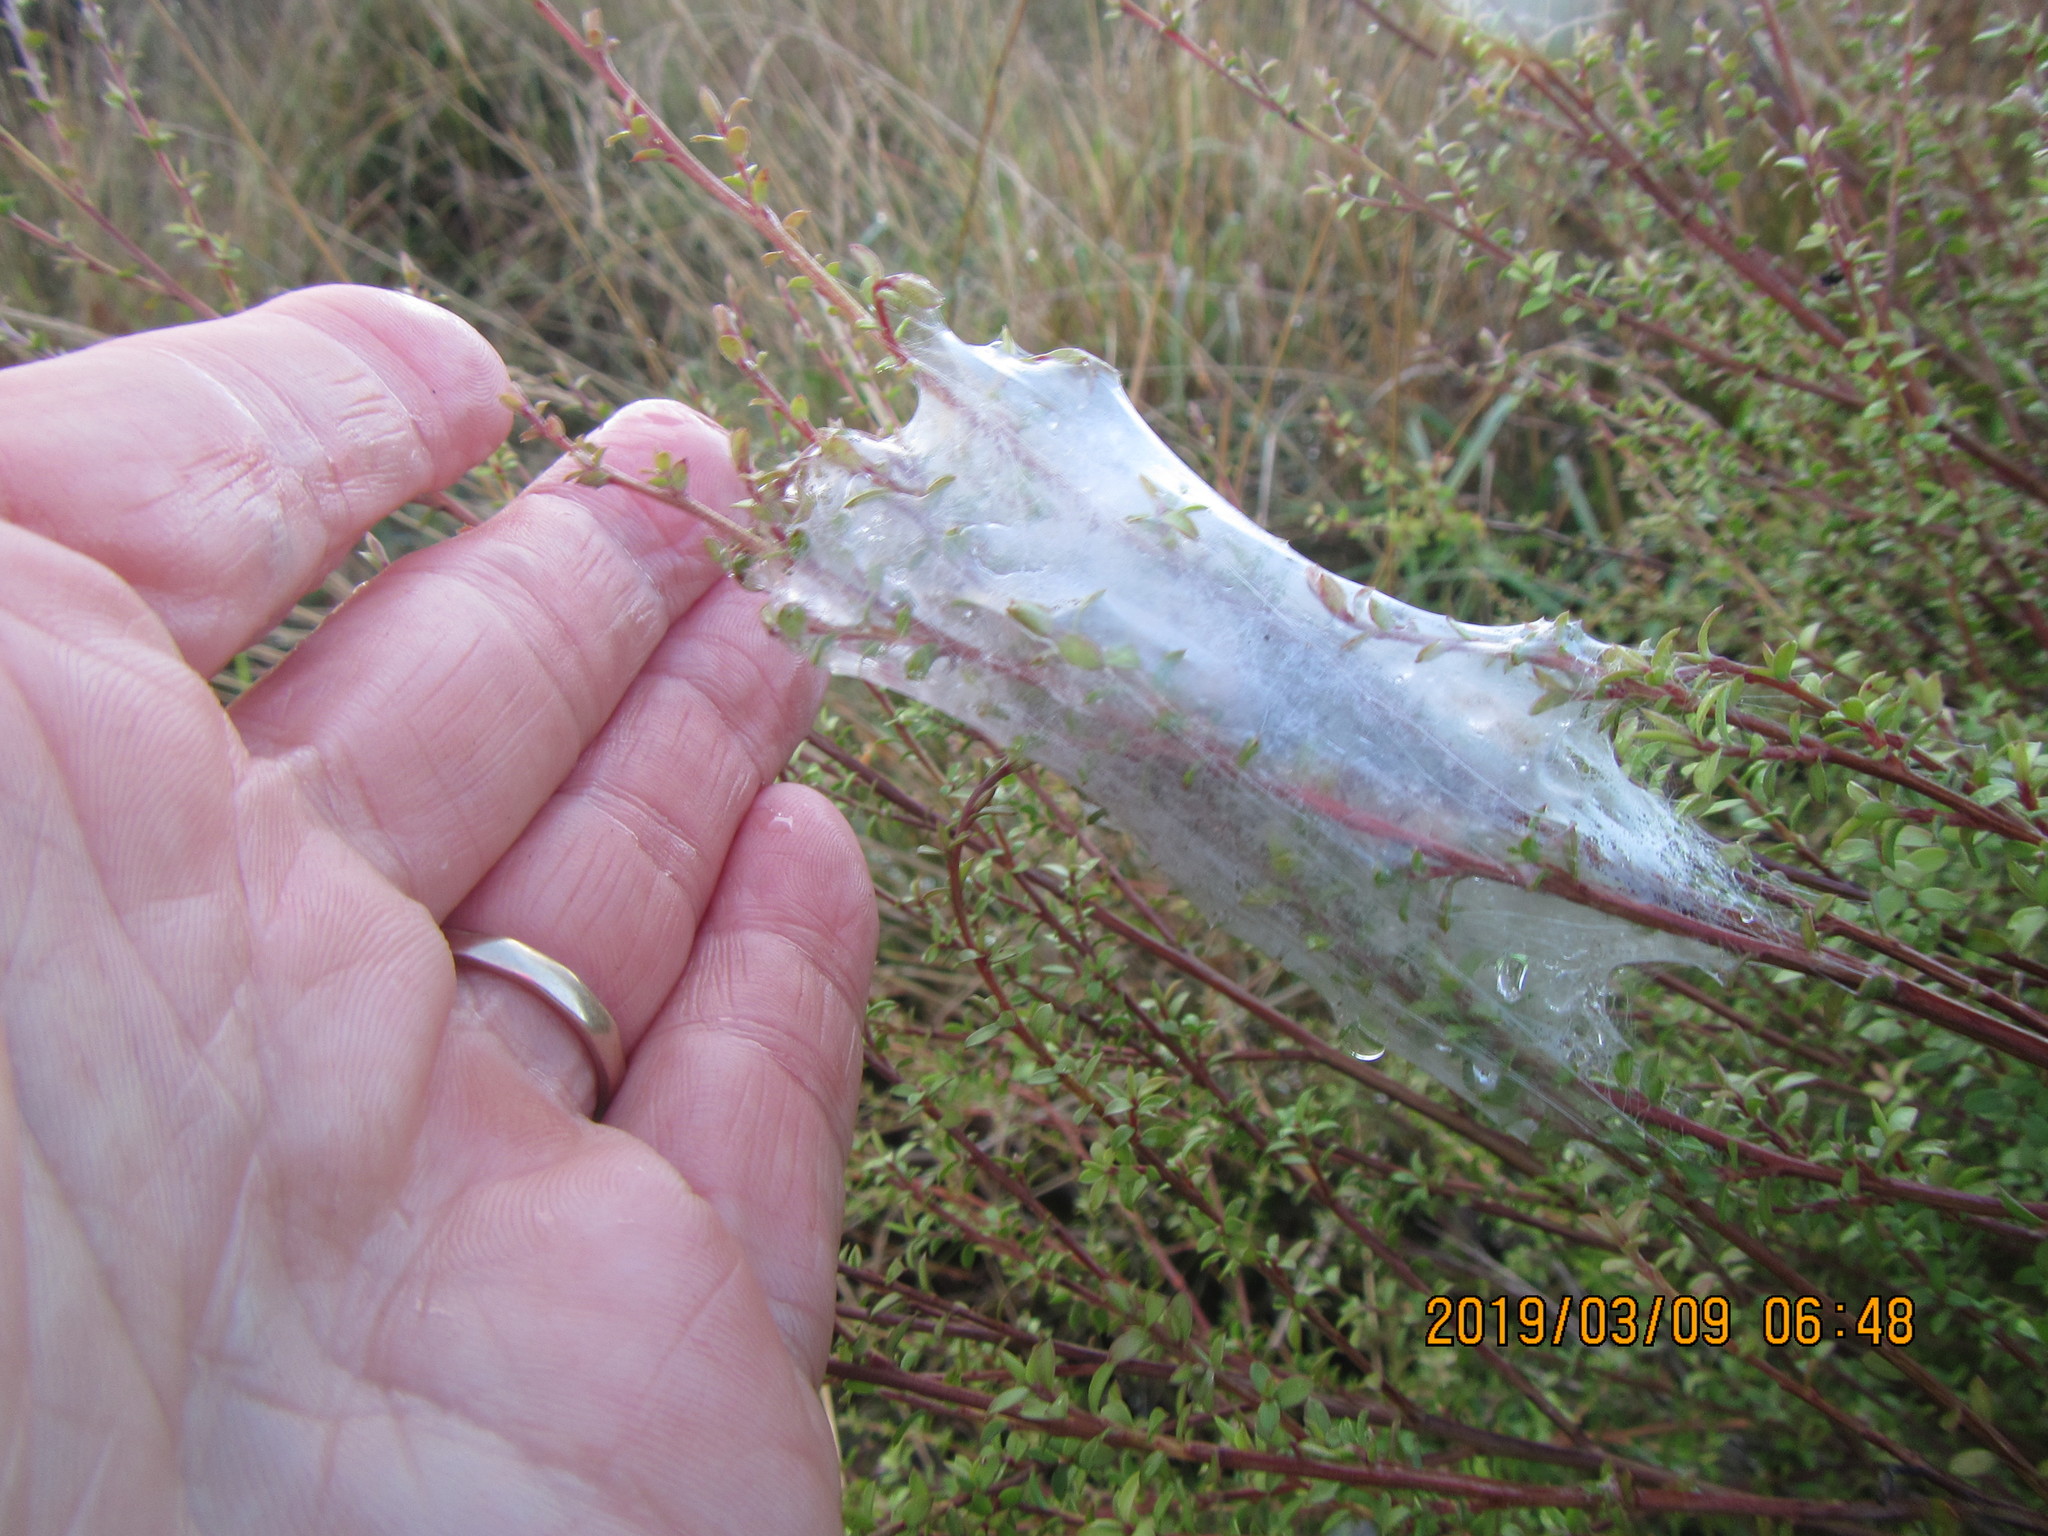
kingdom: Animalia
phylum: Arthropoda
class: Arachnida
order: Araneae
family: Pisauridae
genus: Dolomedes
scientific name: Dolomedes minor
